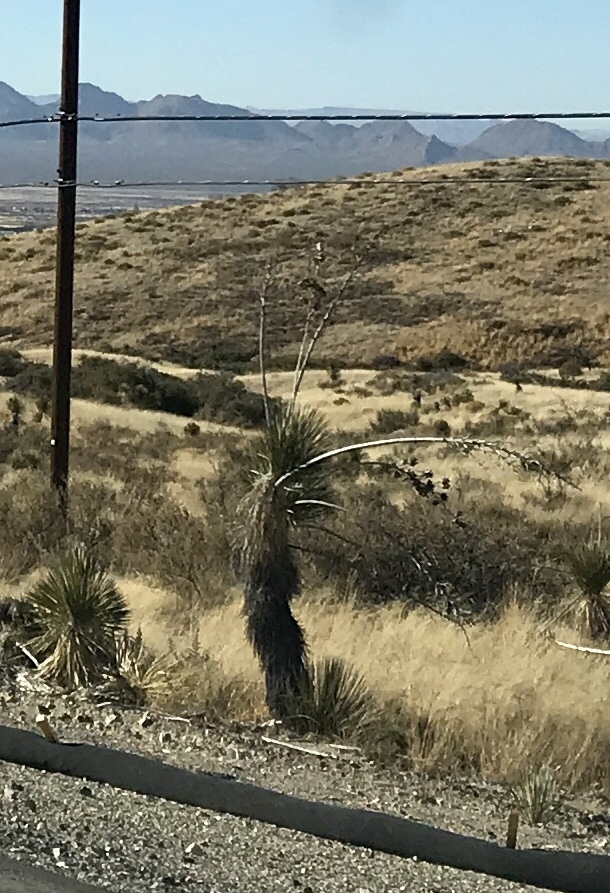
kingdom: Plantae
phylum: Tracheophyta
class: Liliopsida
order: Asparagales
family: Asparagaceae
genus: Yucca
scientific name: Yucca elata
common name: Palmella
